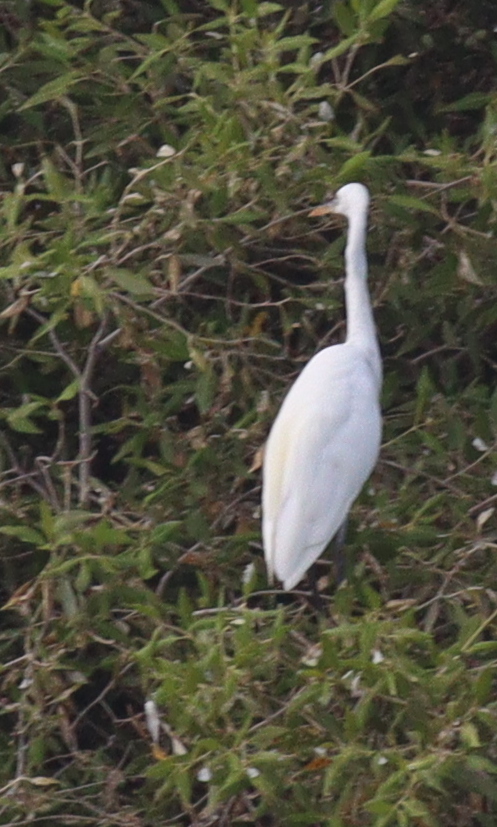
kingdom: Animalia
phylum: Chordata
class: Aves
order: Pelecaniformes
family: Ardeidae
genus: Egretta
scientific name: Egretta gularis
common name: Western reef-heron
